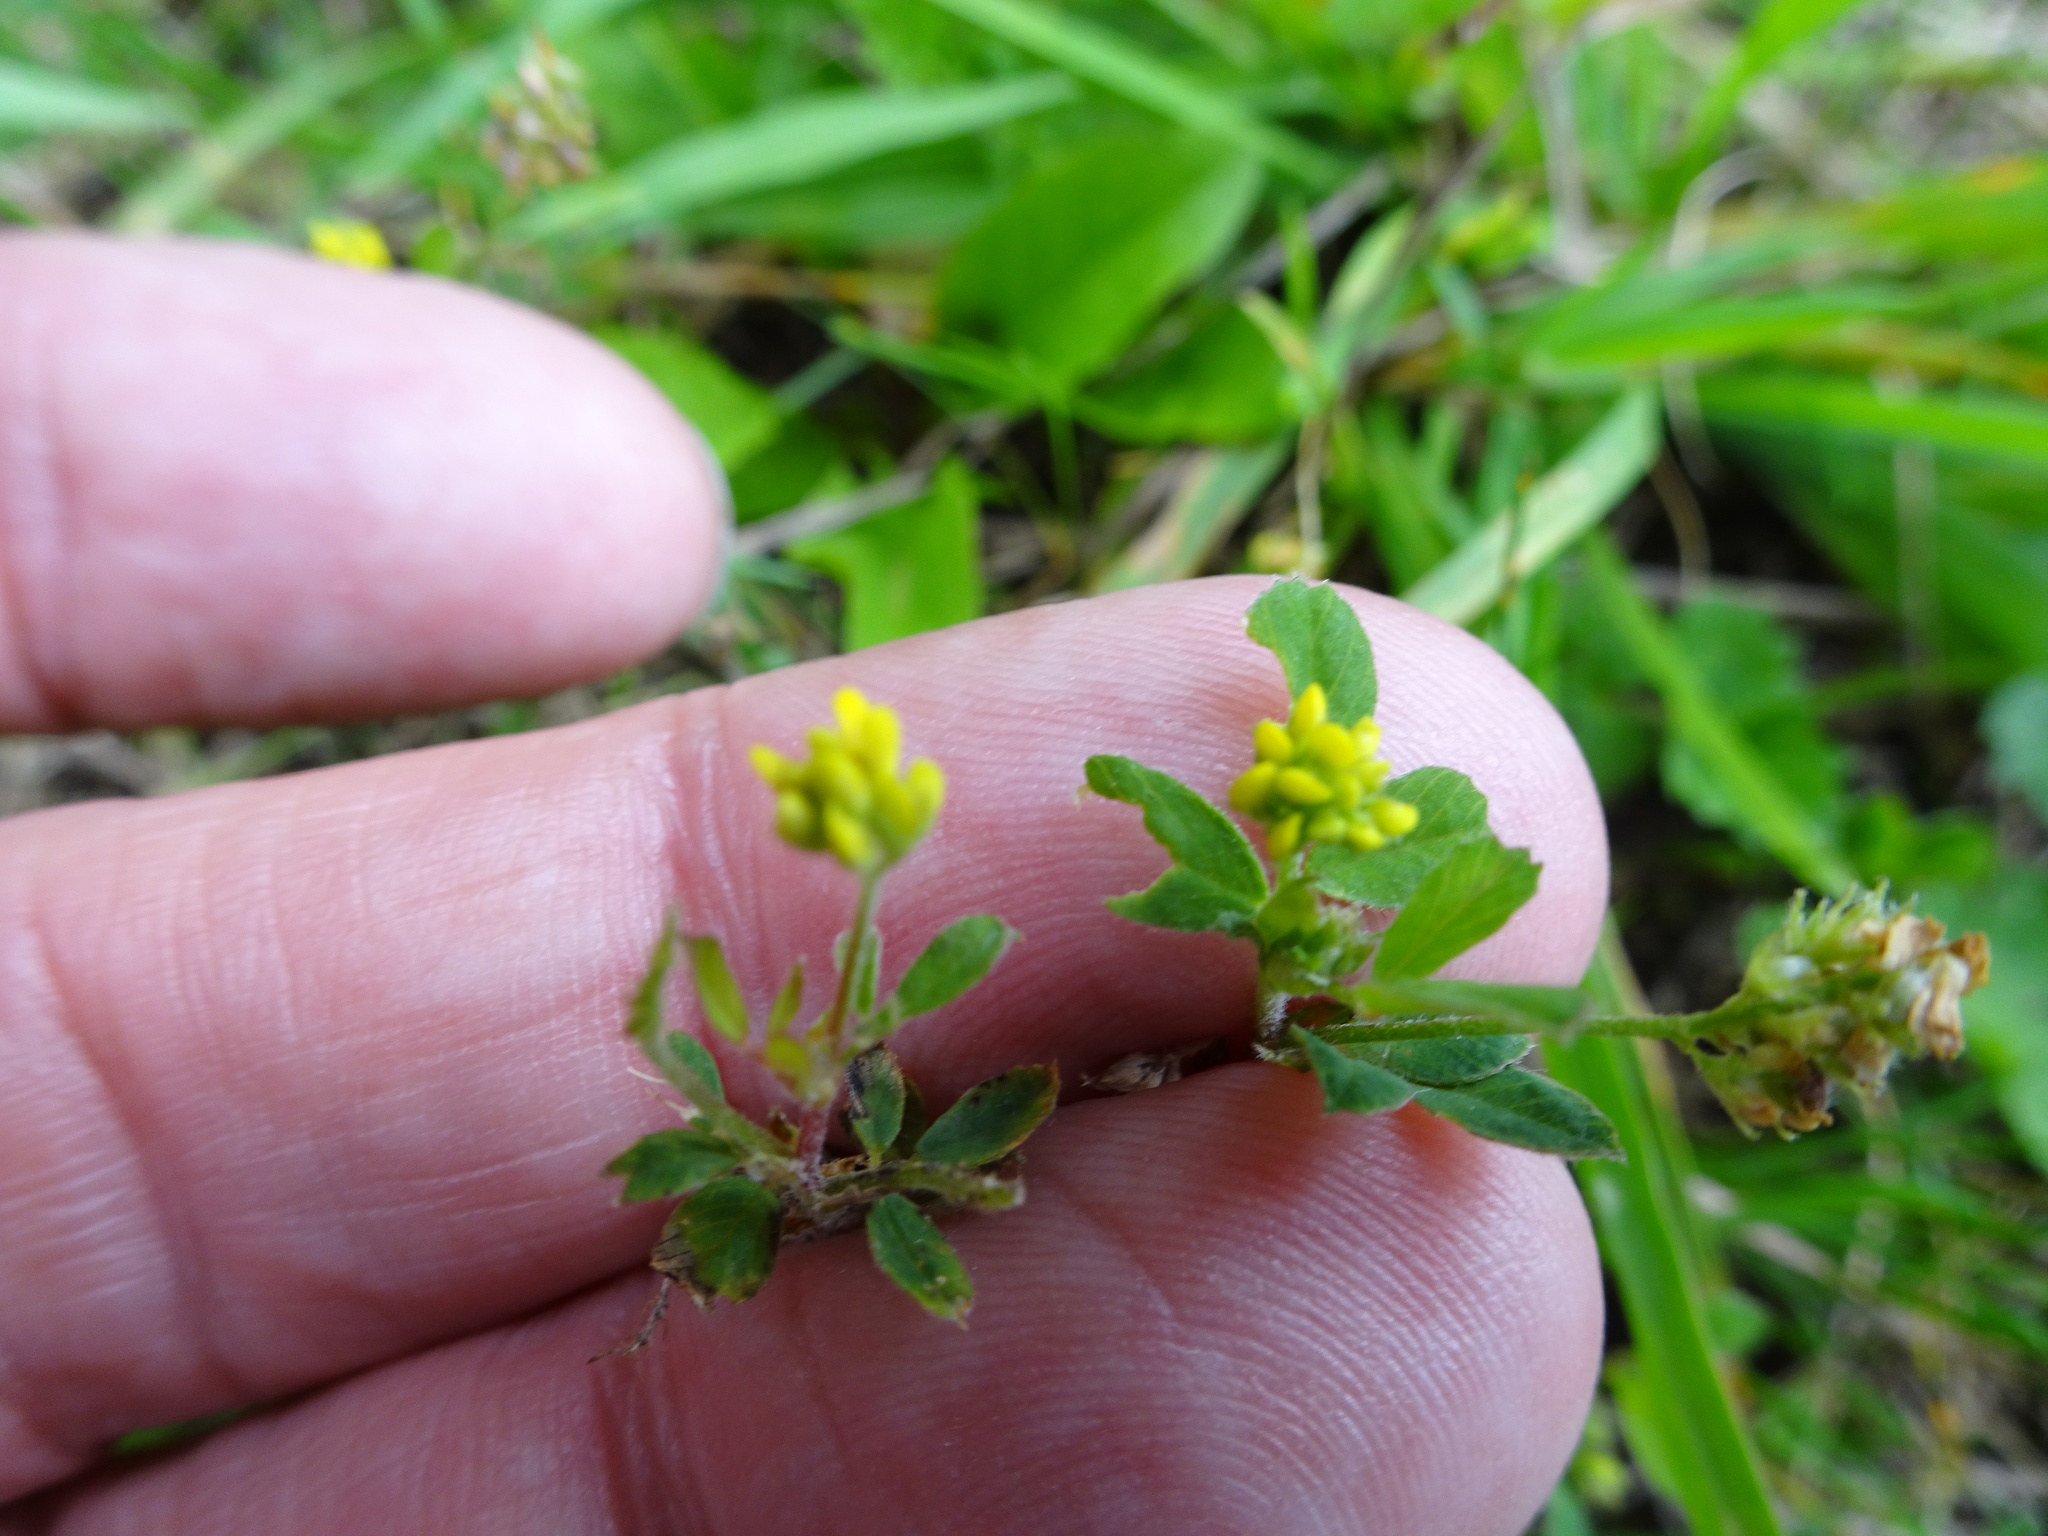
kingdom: Plantae
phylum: Tracheophyta
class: Magnoliopsida
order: Fabales
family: Fabaceae
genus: Medicago
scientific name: Medicago lupulina
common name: Black medick
